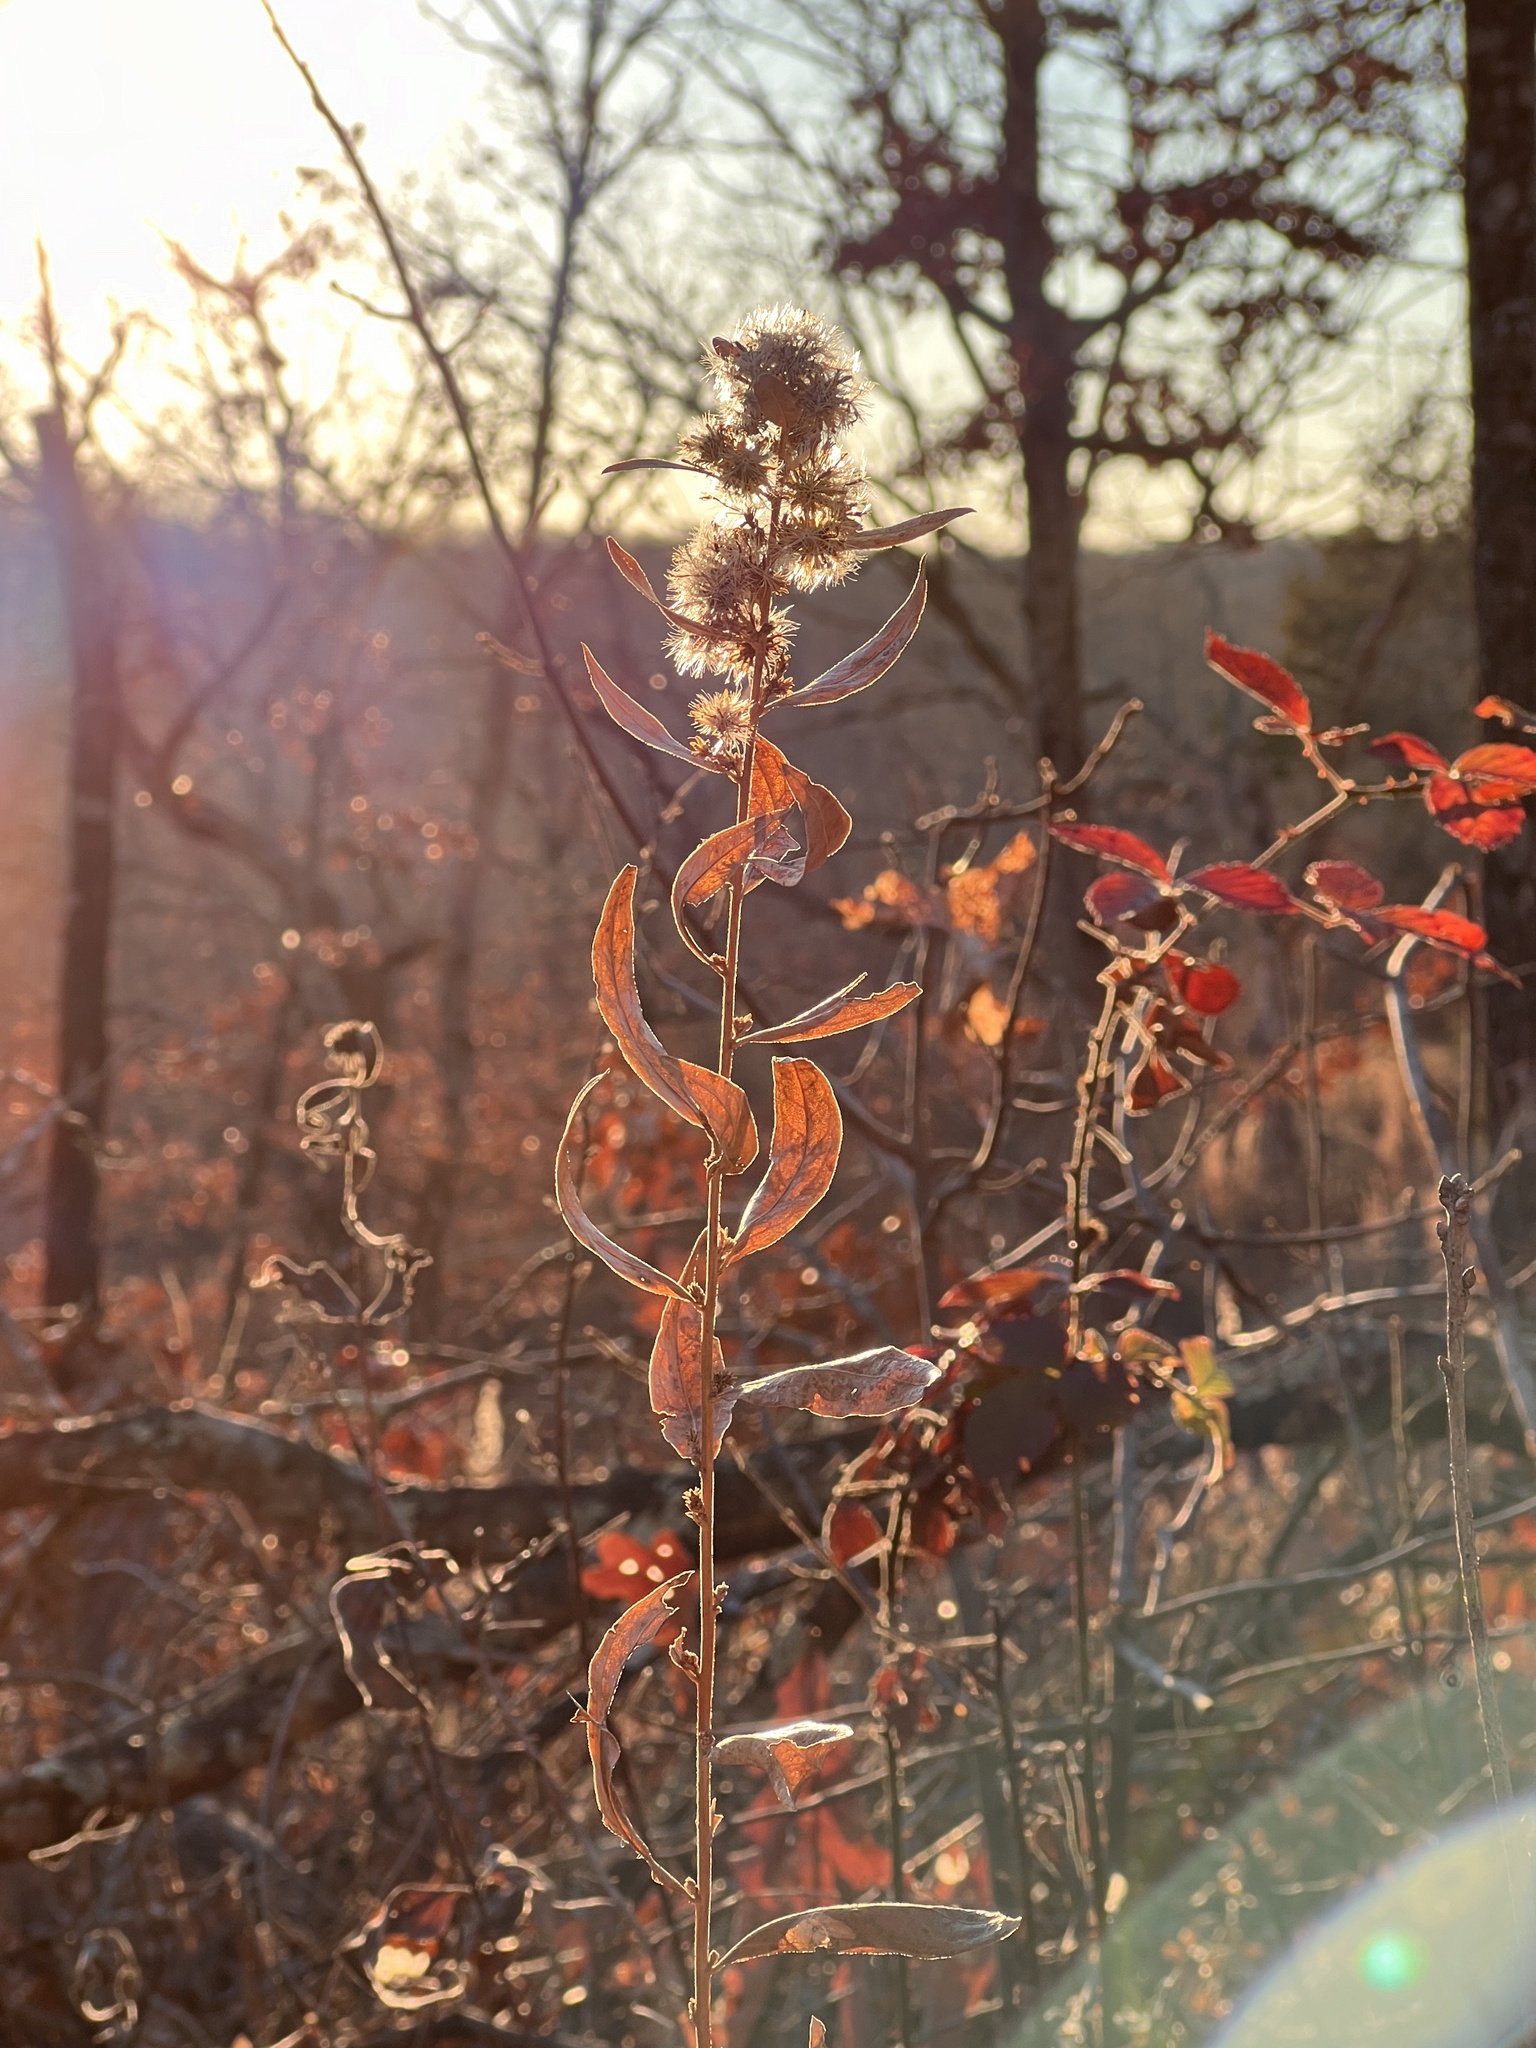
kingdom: Plantae
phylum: Tracheophyta
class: Magnoliopsida
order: Asterales
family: Asteraceae
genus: Solidago
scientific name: Solidago petiolaris
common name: Downy ragged goldenrod
